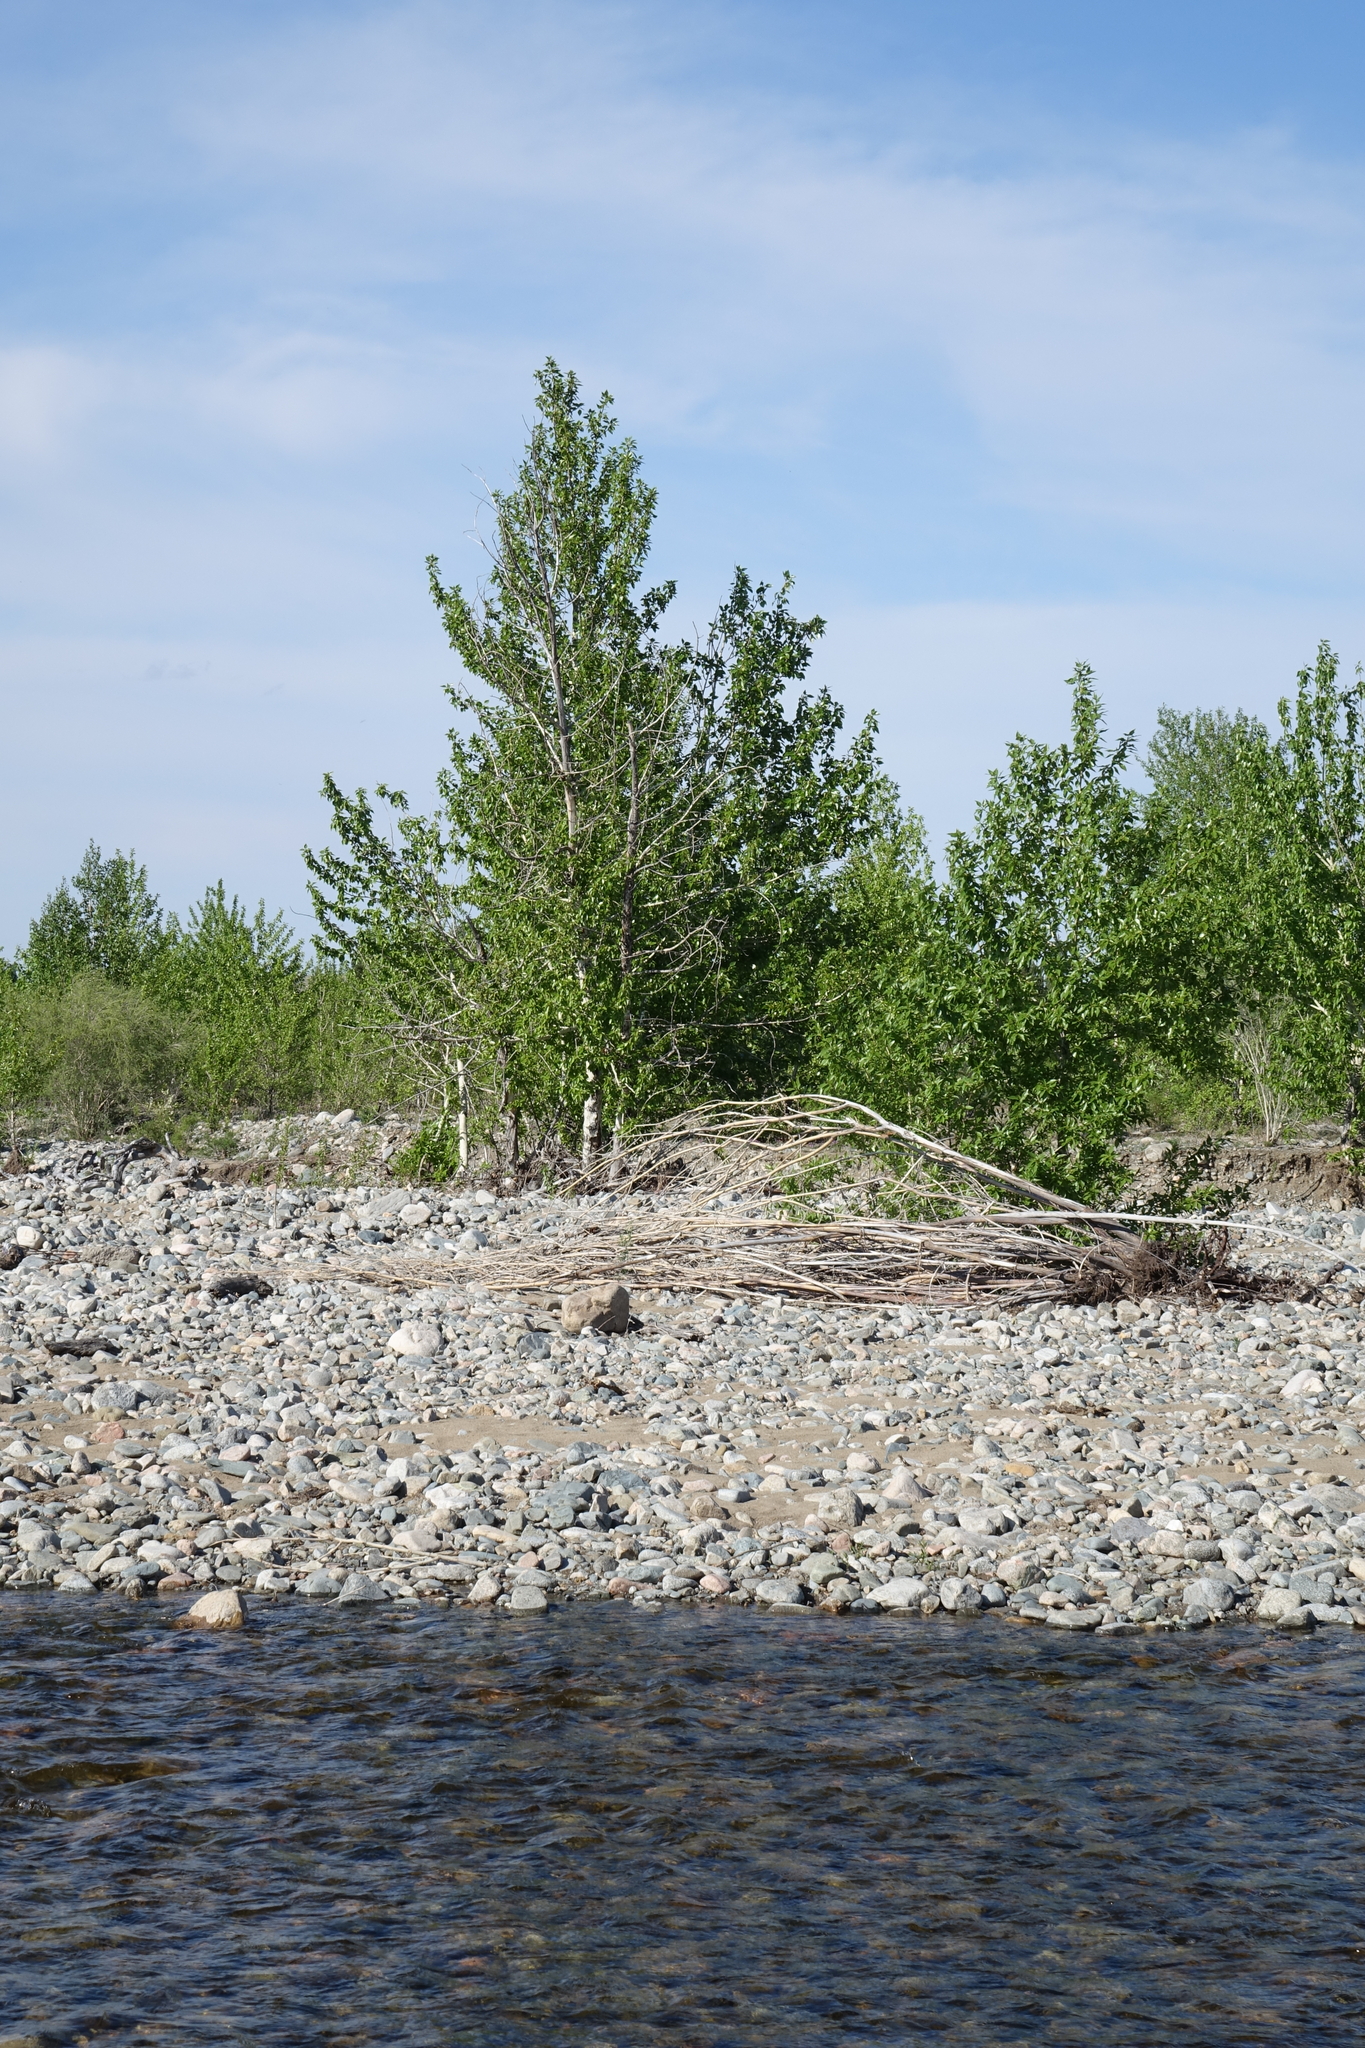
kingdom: Plantae
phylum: Tracheophyta
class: Magnoliopsida
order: Malpighiales
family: Salicaceae
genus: Populus
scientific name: Populus laurifolia
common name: Laurel-leaf poplar
